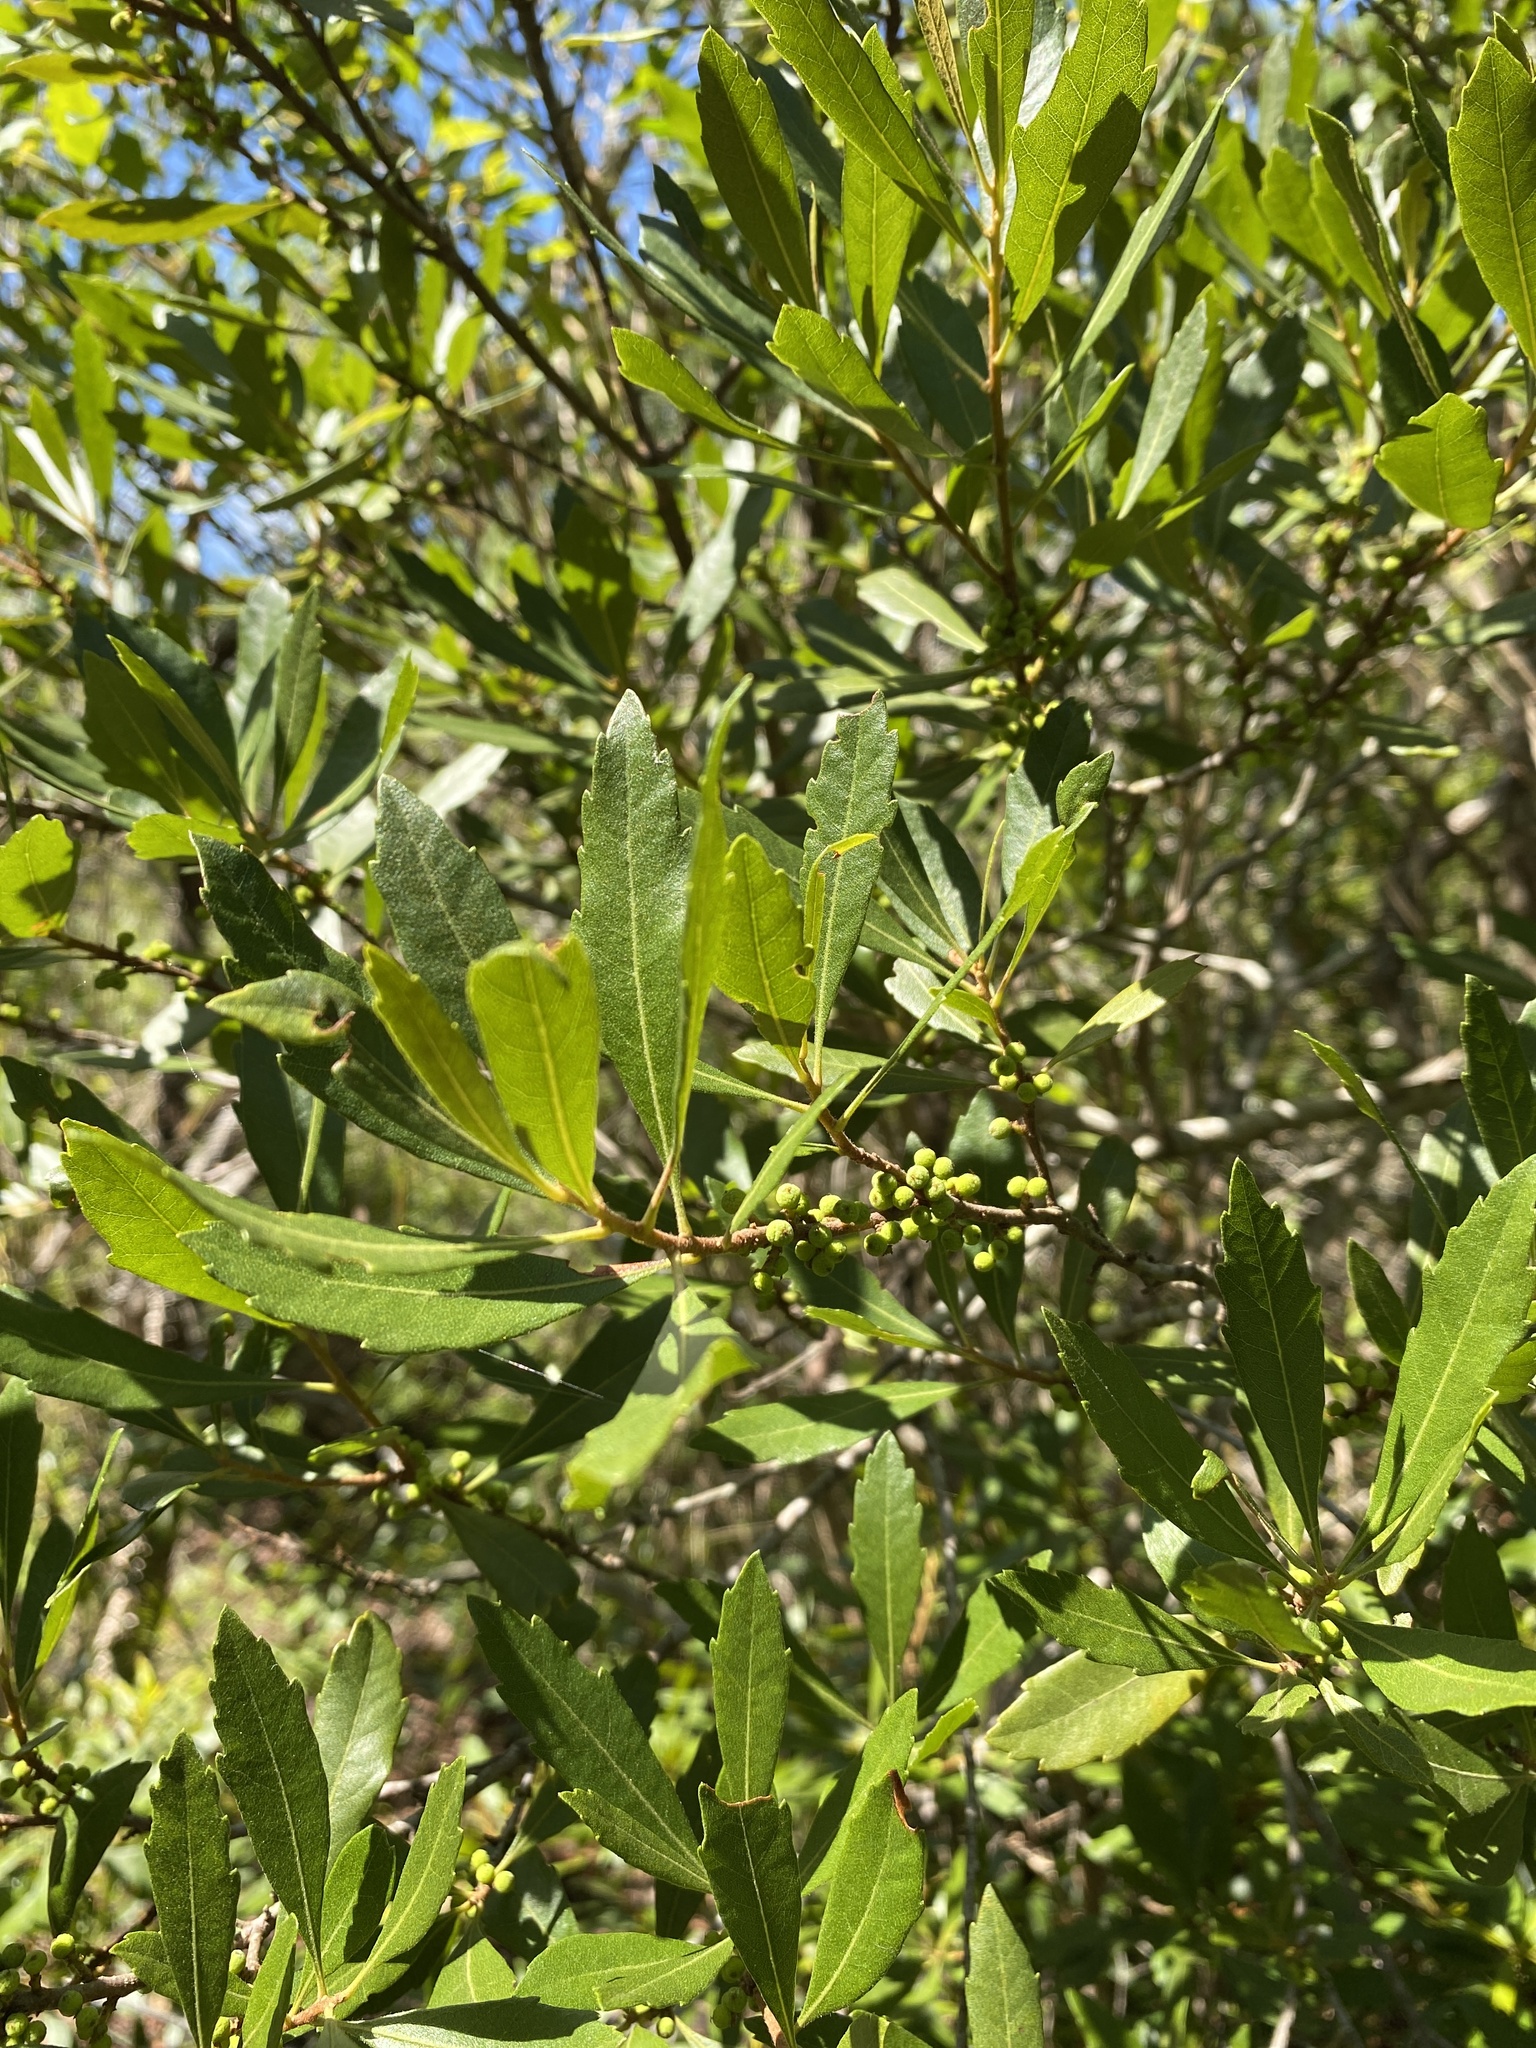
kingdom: Plantae
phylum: Tracheophyta
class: Magnoliopsida
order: Fagales
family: Myricaceae
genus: Morella
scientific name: Morella cerifera
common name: Wax myrtle
